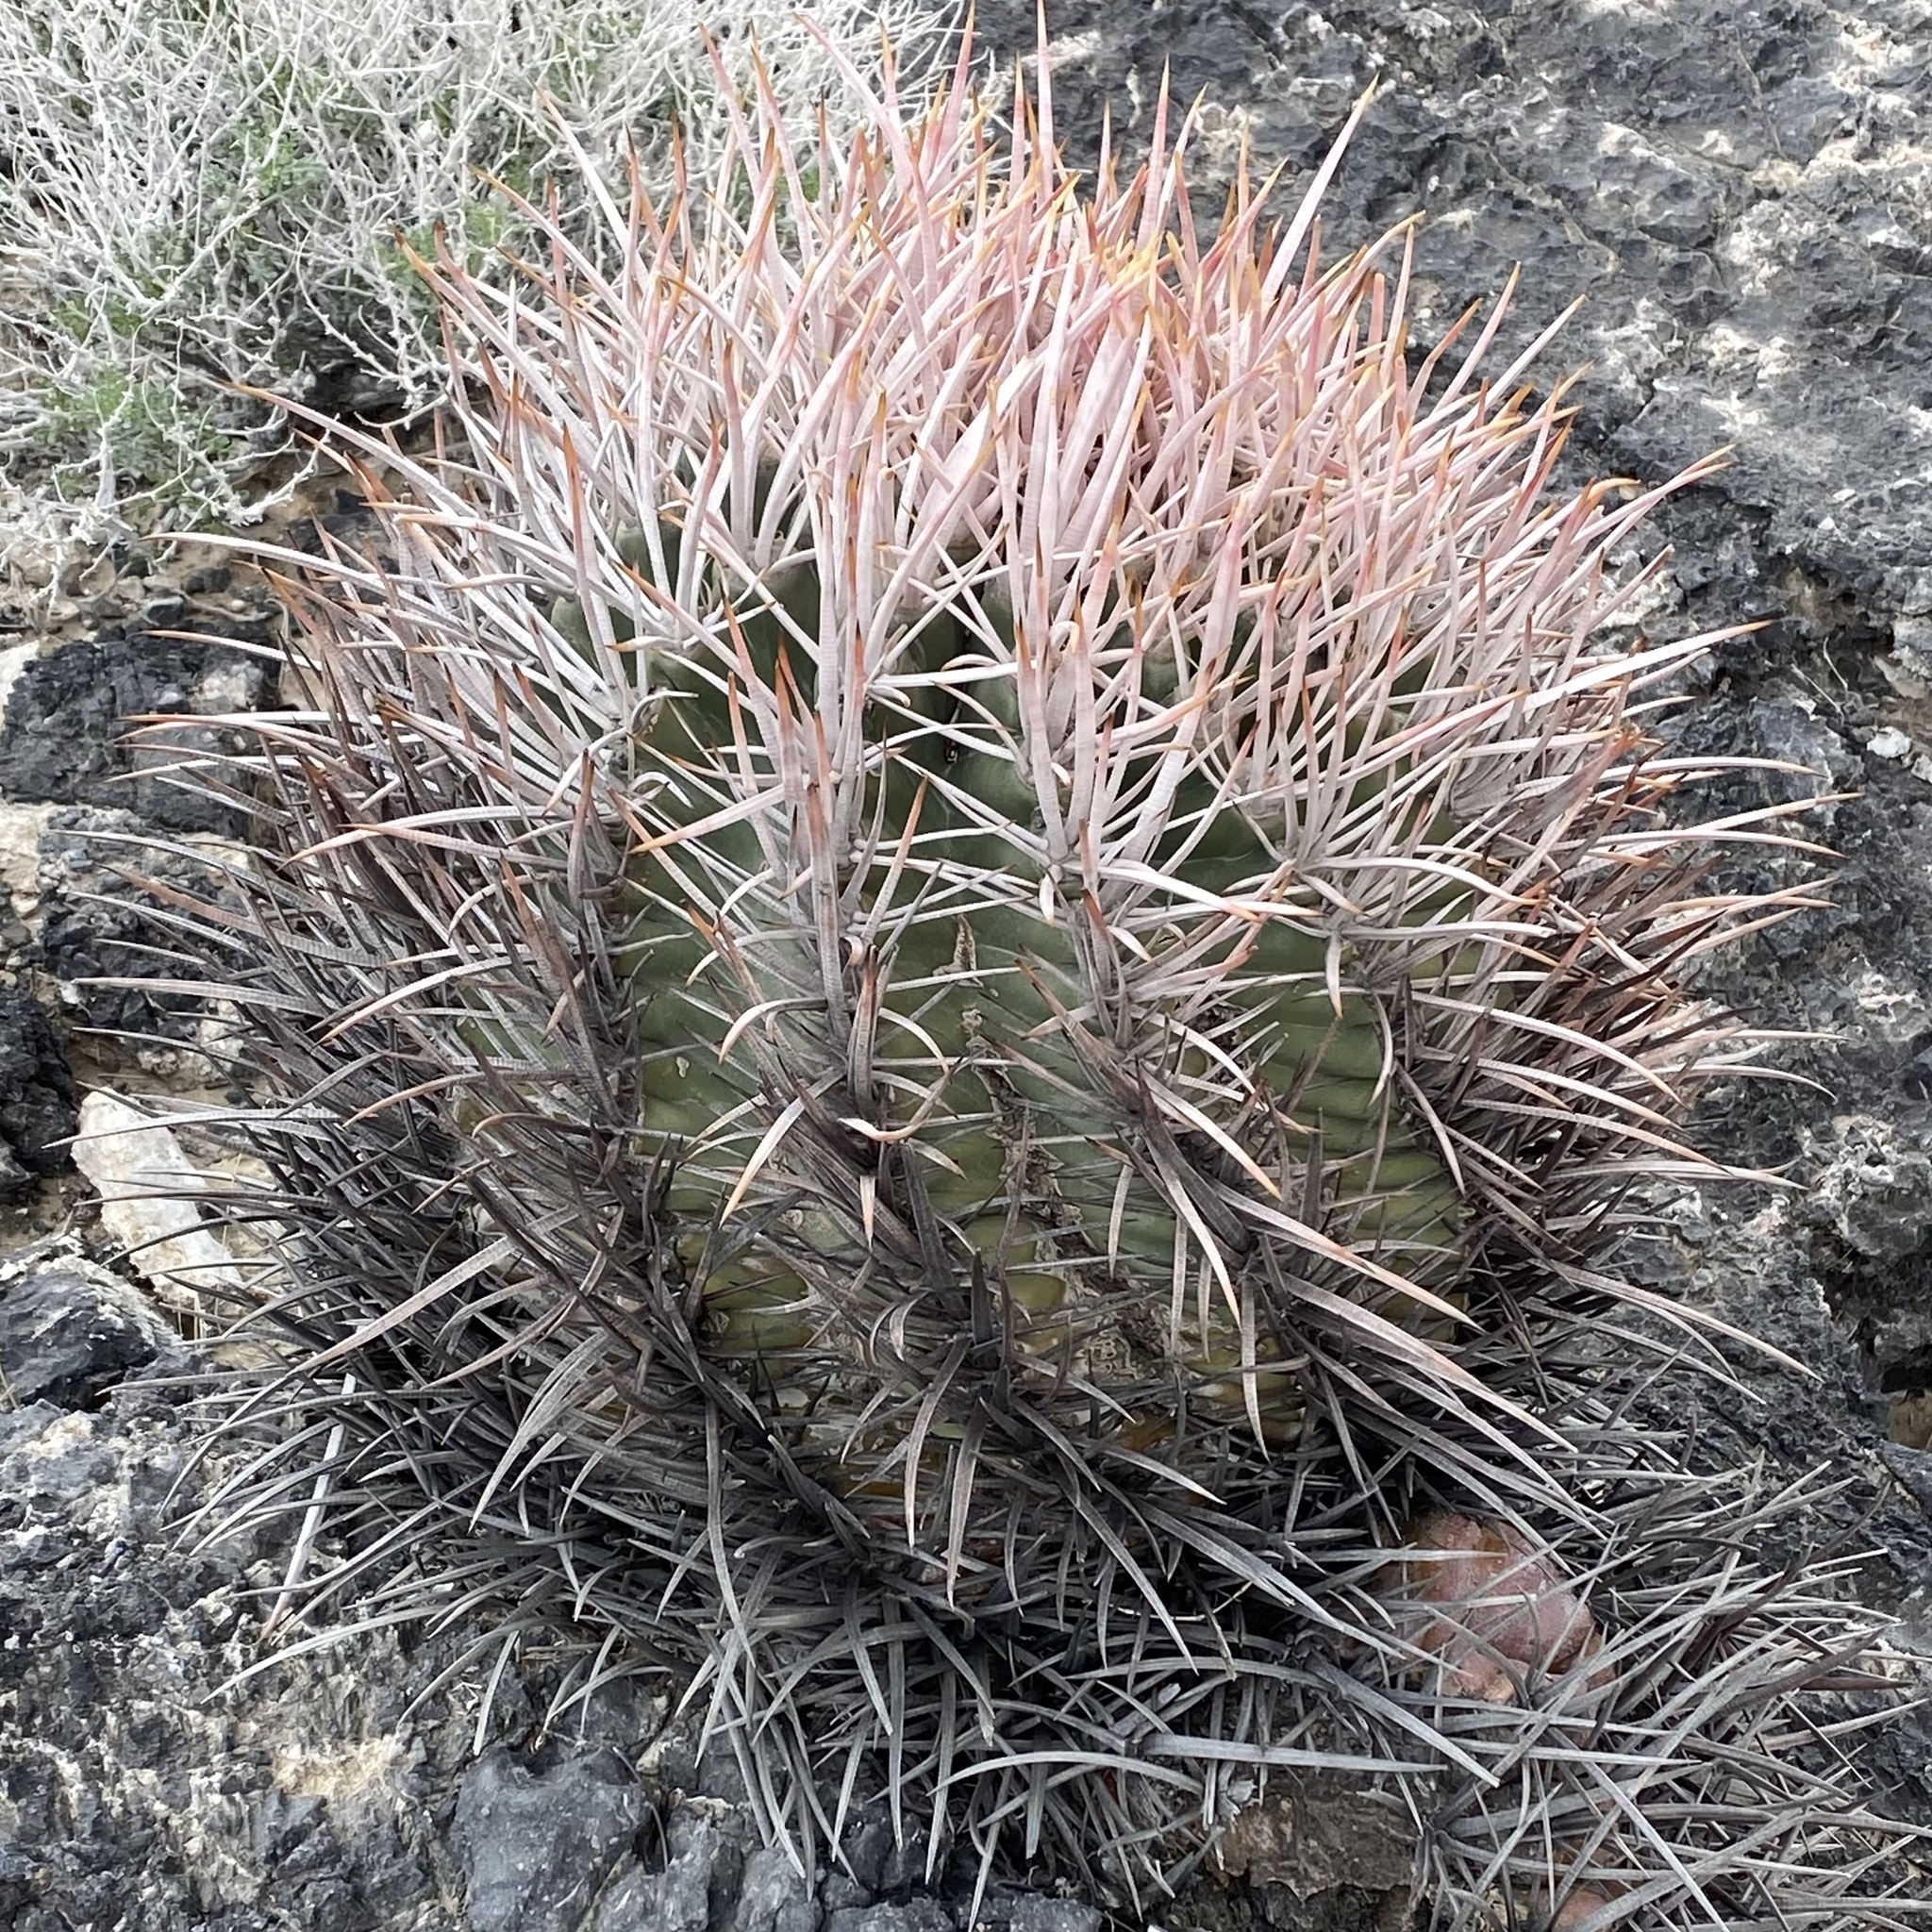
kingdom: Plantae
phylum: Tracheophyta
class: Magnoliopsida
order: Caryophyllales
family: Cactaceae
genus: Echinocactus
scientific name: Echinocactus polycephalus
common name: Cottontop cactus
